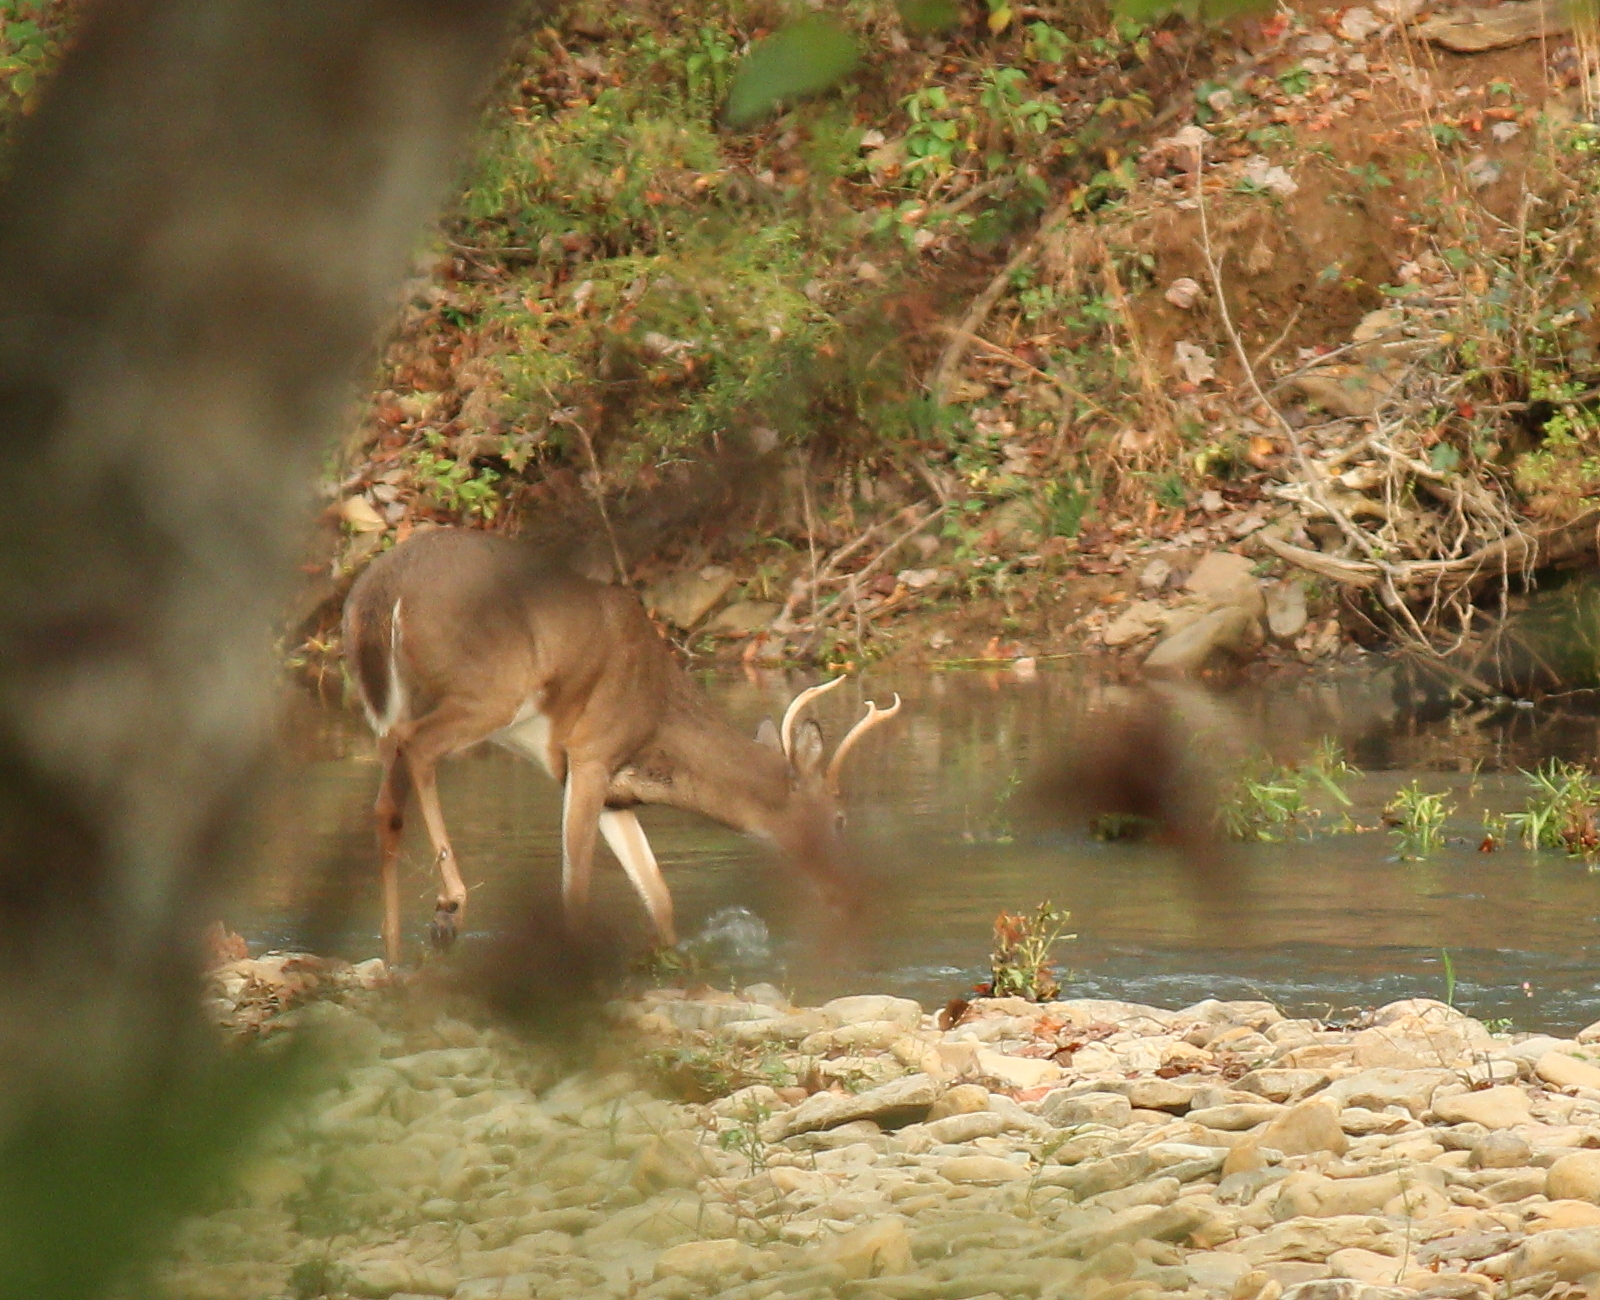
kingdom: Animalia
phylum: Chordata
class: Mammalia
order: Artiodactyla
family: Cervidae
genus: Odocoileus
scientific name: Odocoileus virginianus
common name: White-tailed deer
